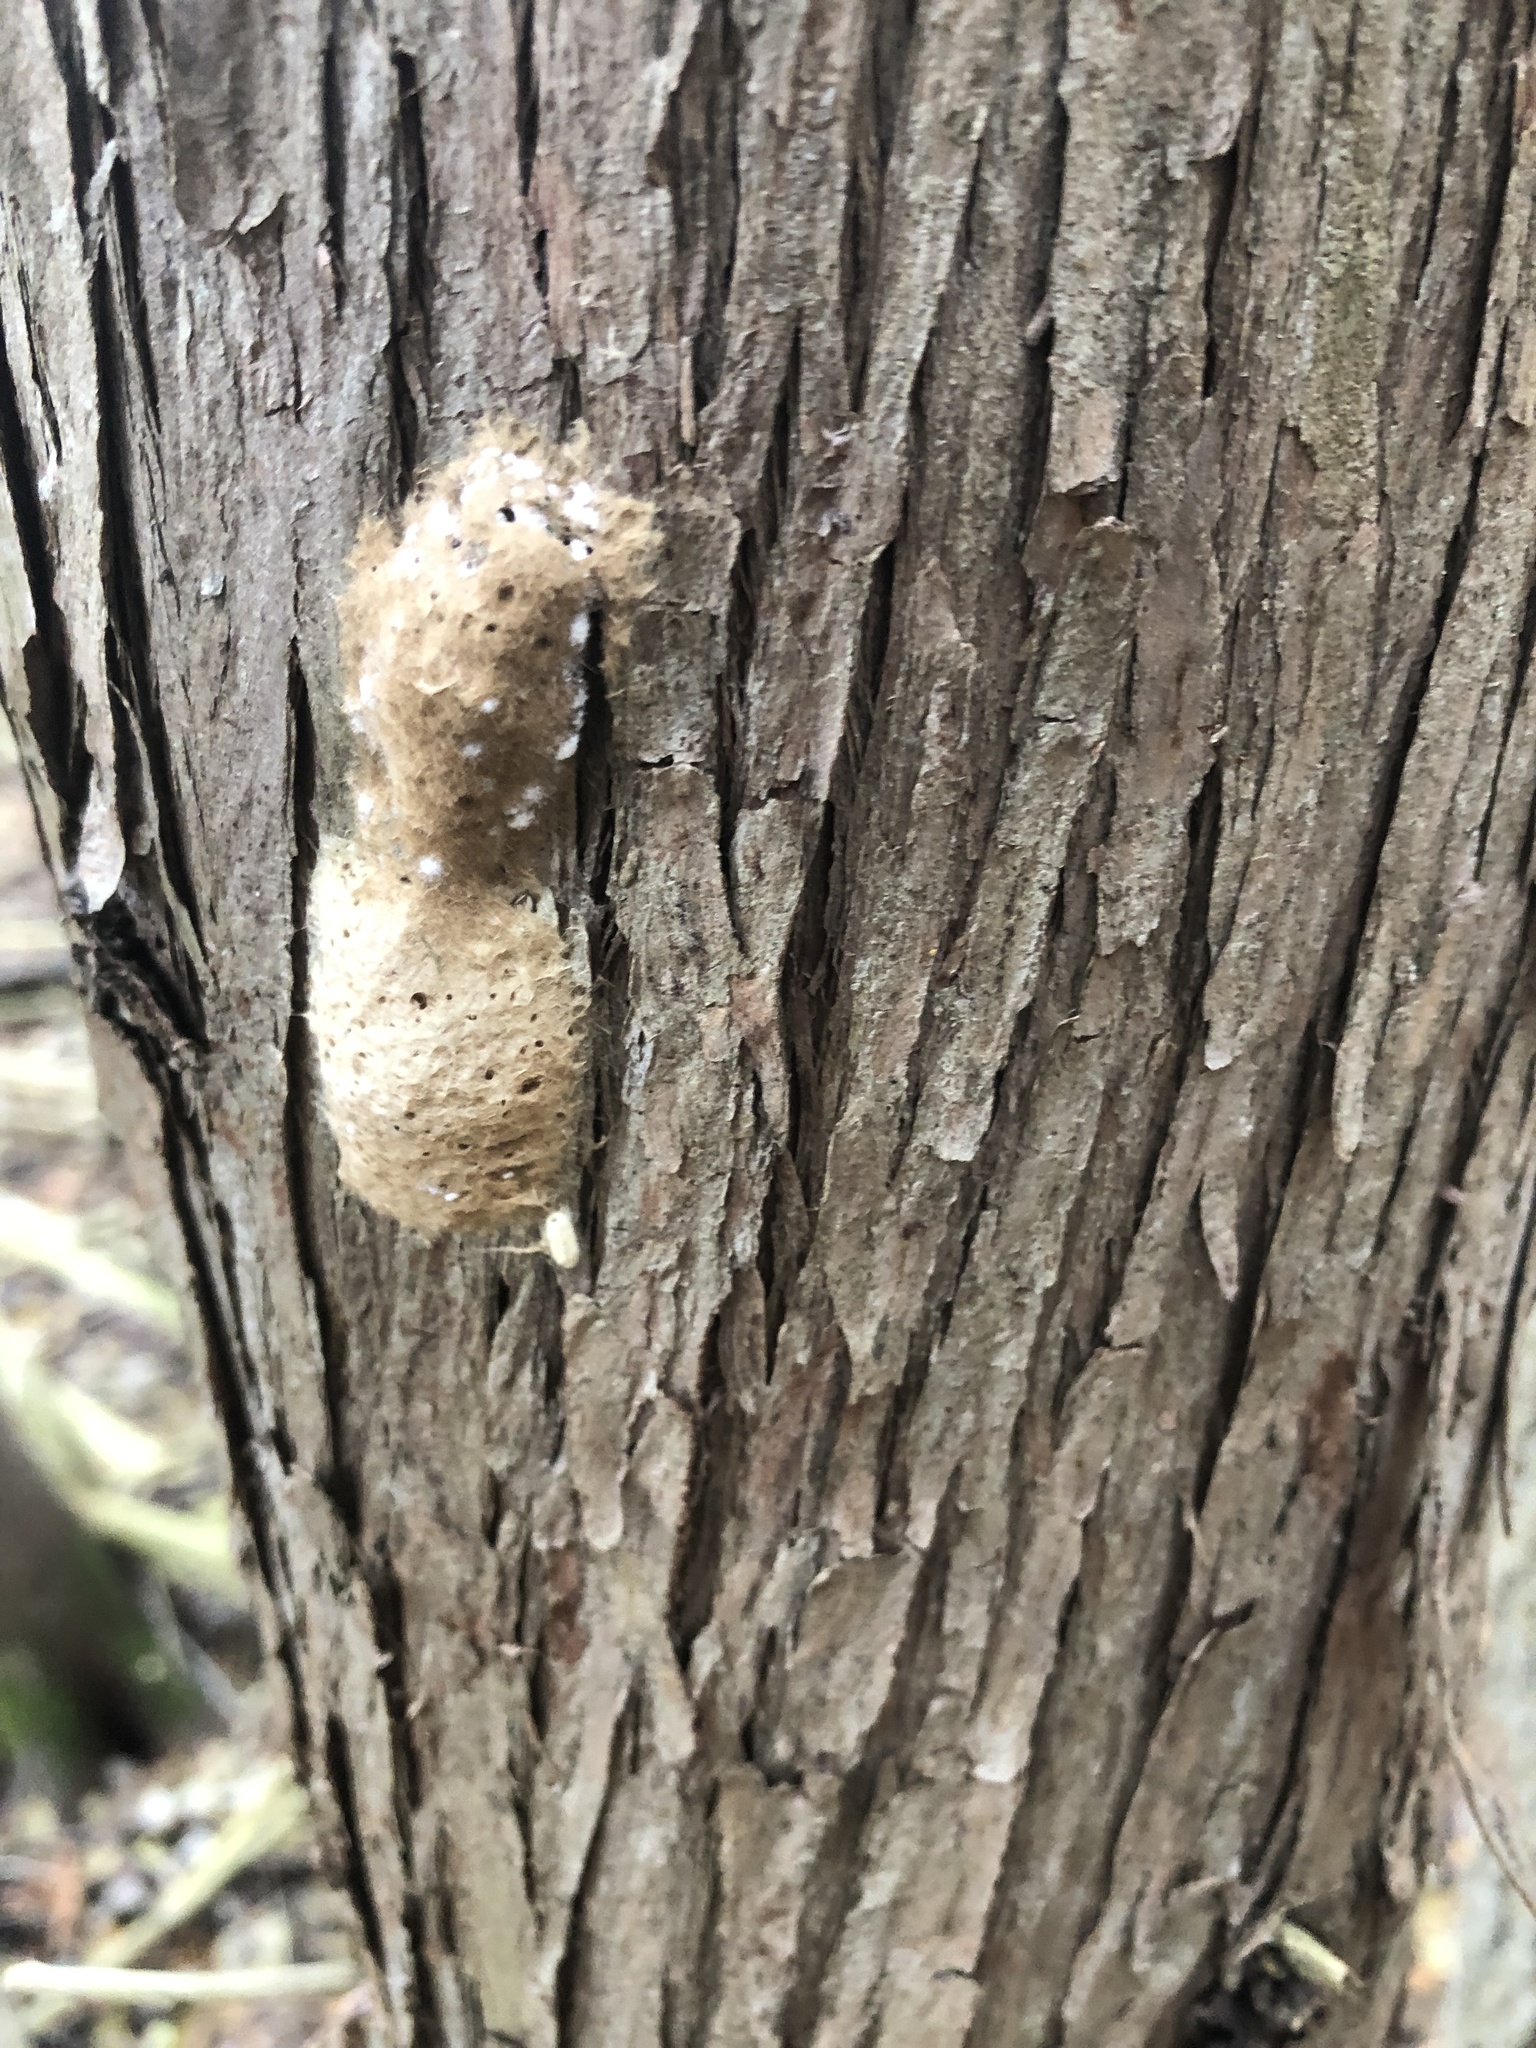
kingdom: Animalia
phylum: Arthropoda
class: Insecta
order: Lepidoptera
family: Erebidae
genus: Lymantria
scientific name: Lymantria dispar
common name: Gypsy moth
